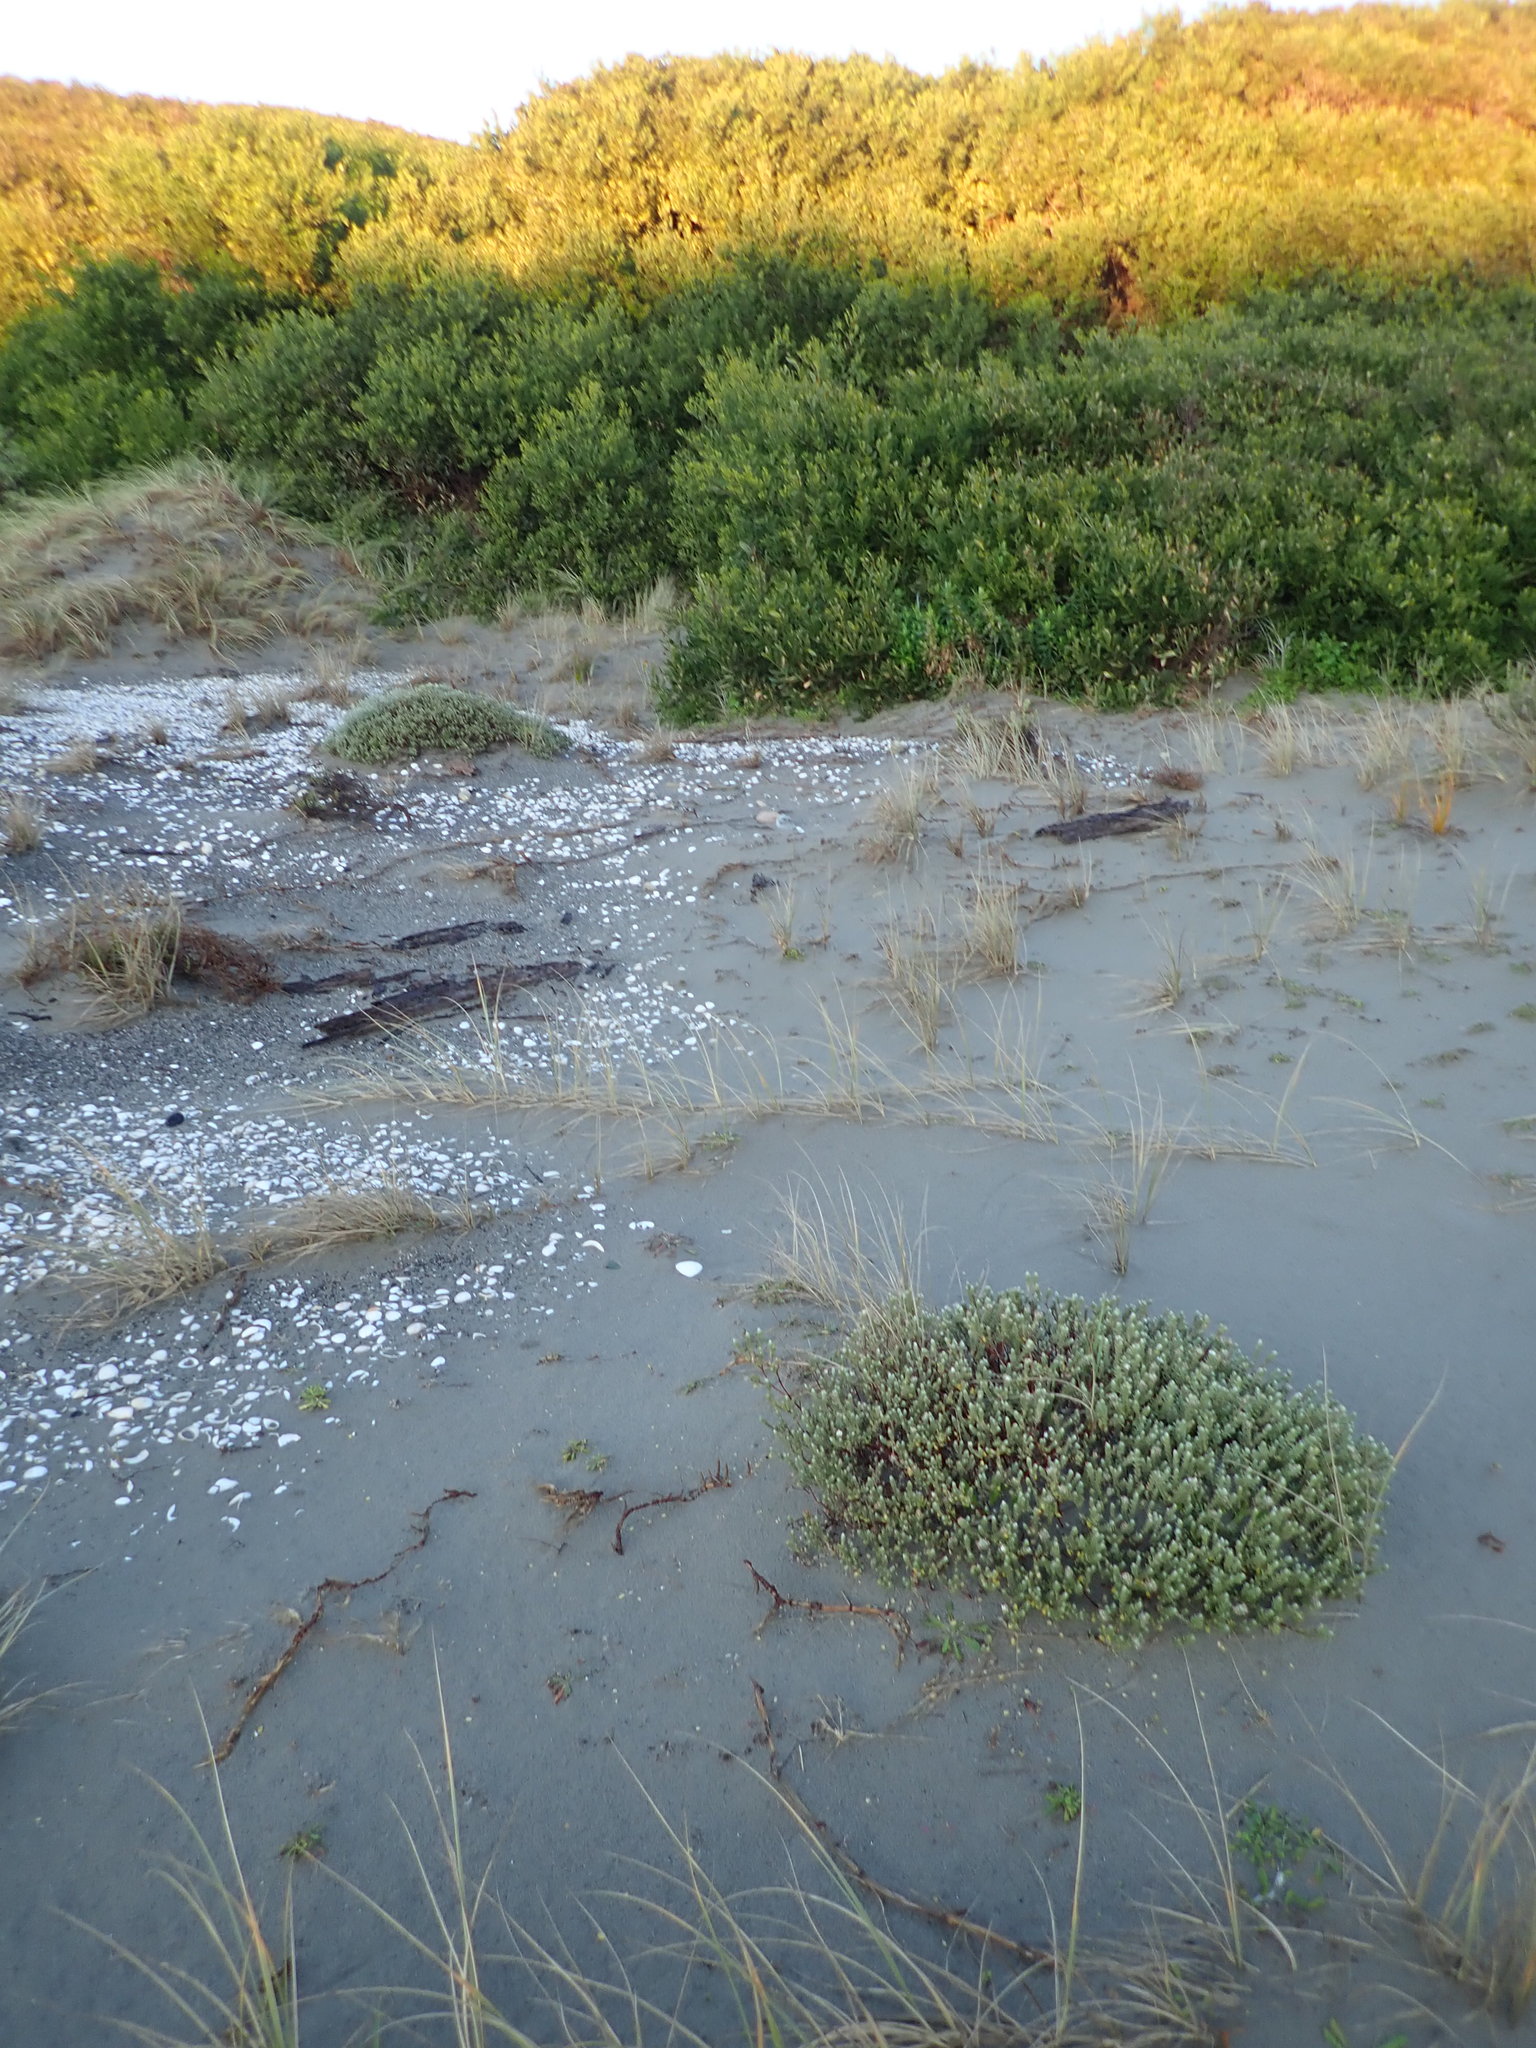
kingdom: Plantae
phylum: Tracheophyta
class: Magnoliopsida
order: Malvales
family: Thymelaeaceae
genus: Pimelea
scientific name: Pimelea villosa
